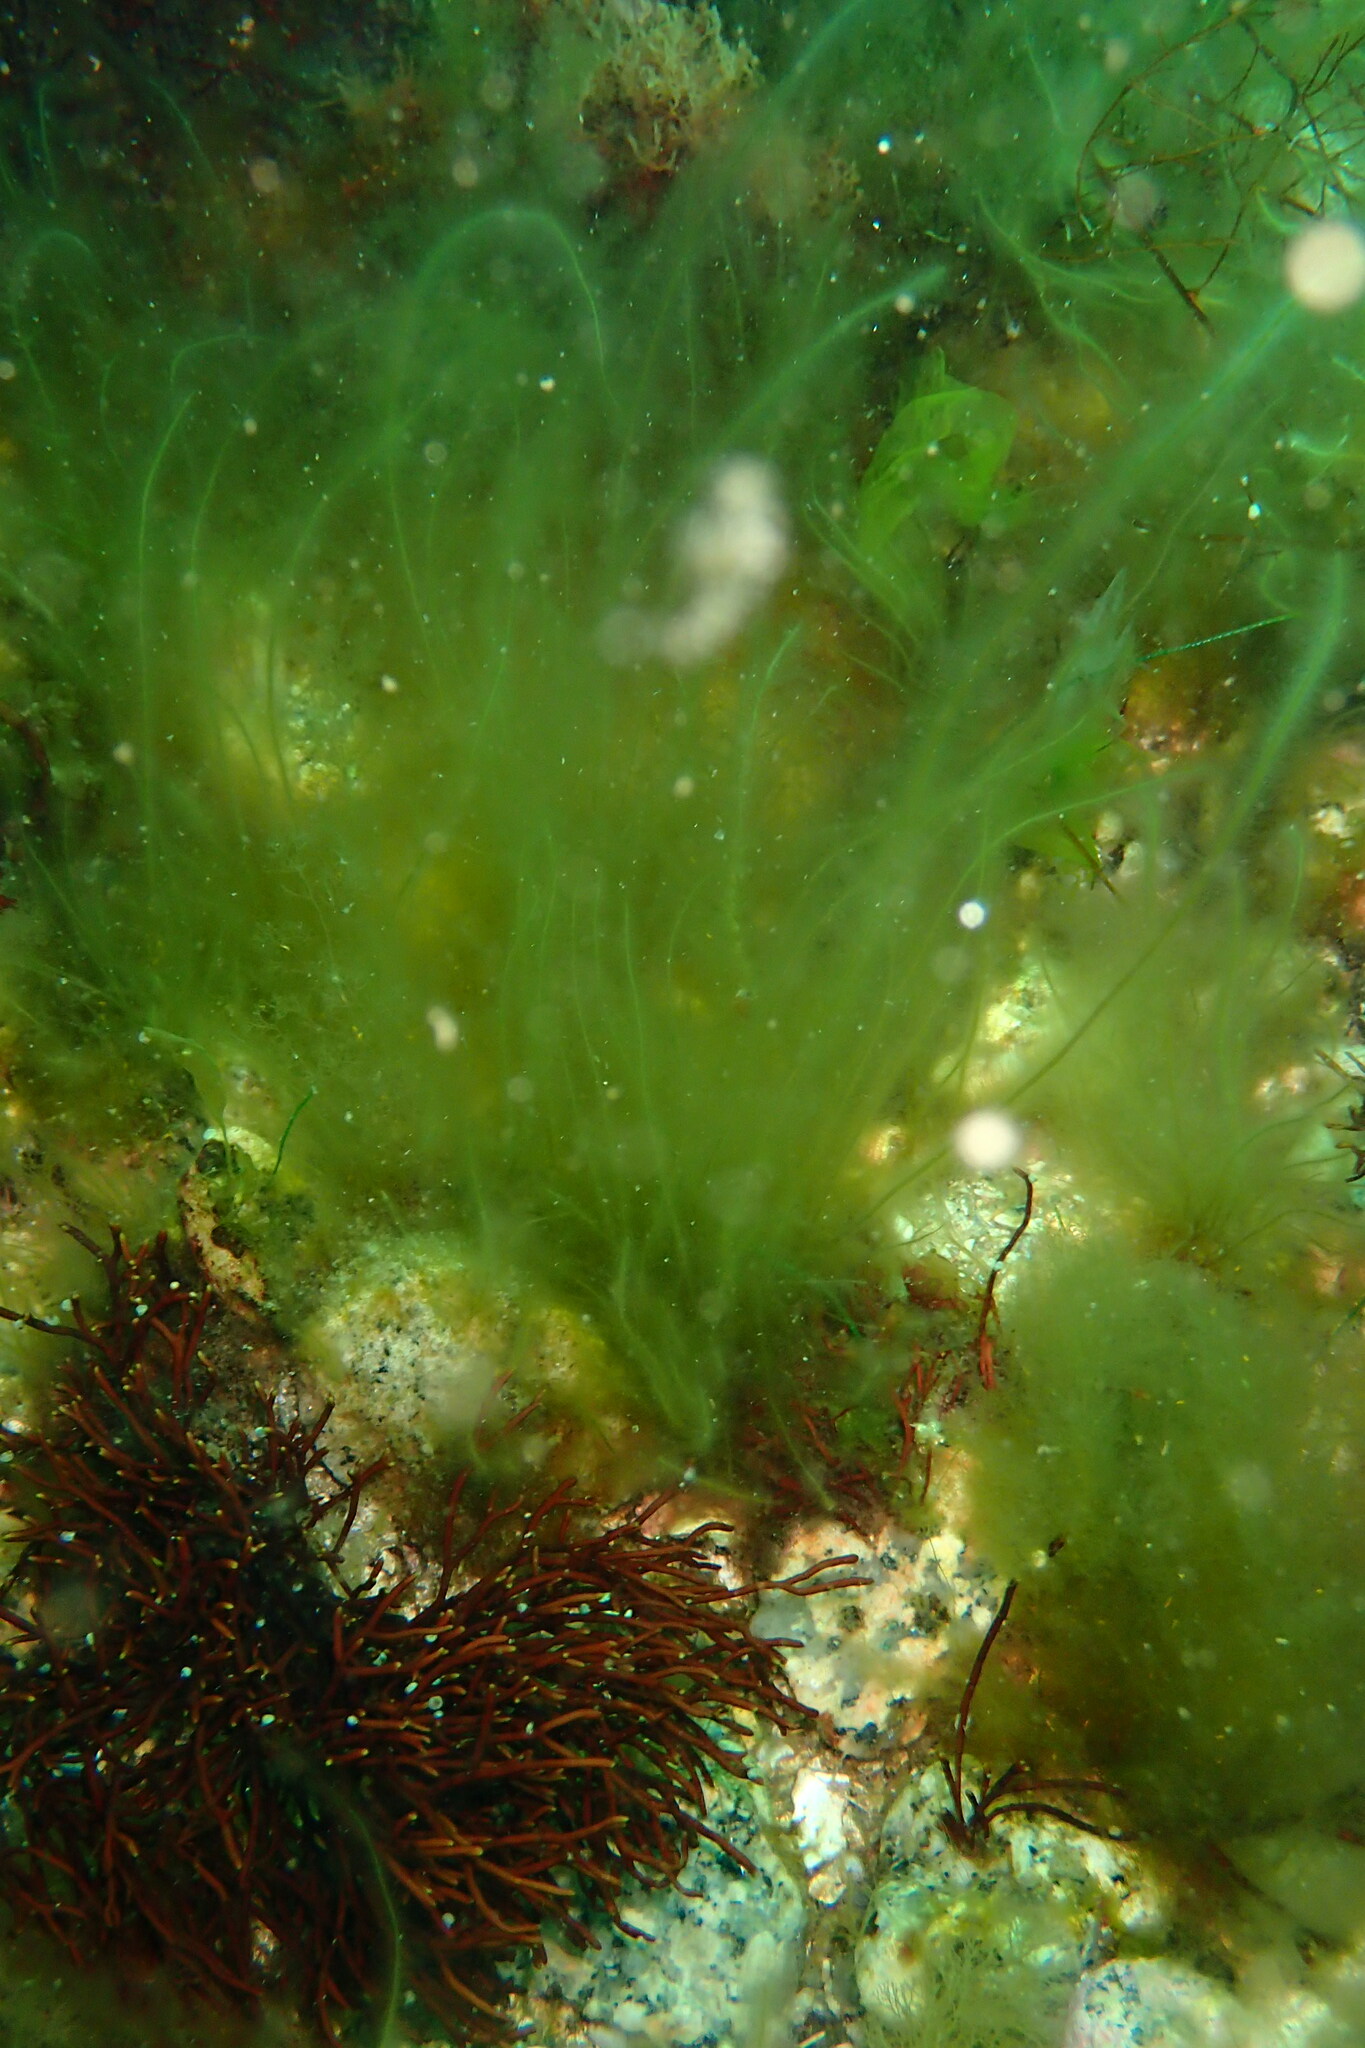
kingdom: Chromista
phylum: Ochrophyta
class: Phaeophyceae
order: Scytosiphonales
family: Scytosiphonaceae
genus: Scytosiphon
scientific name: Scytosiphon lomentaria
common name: Beanweed
